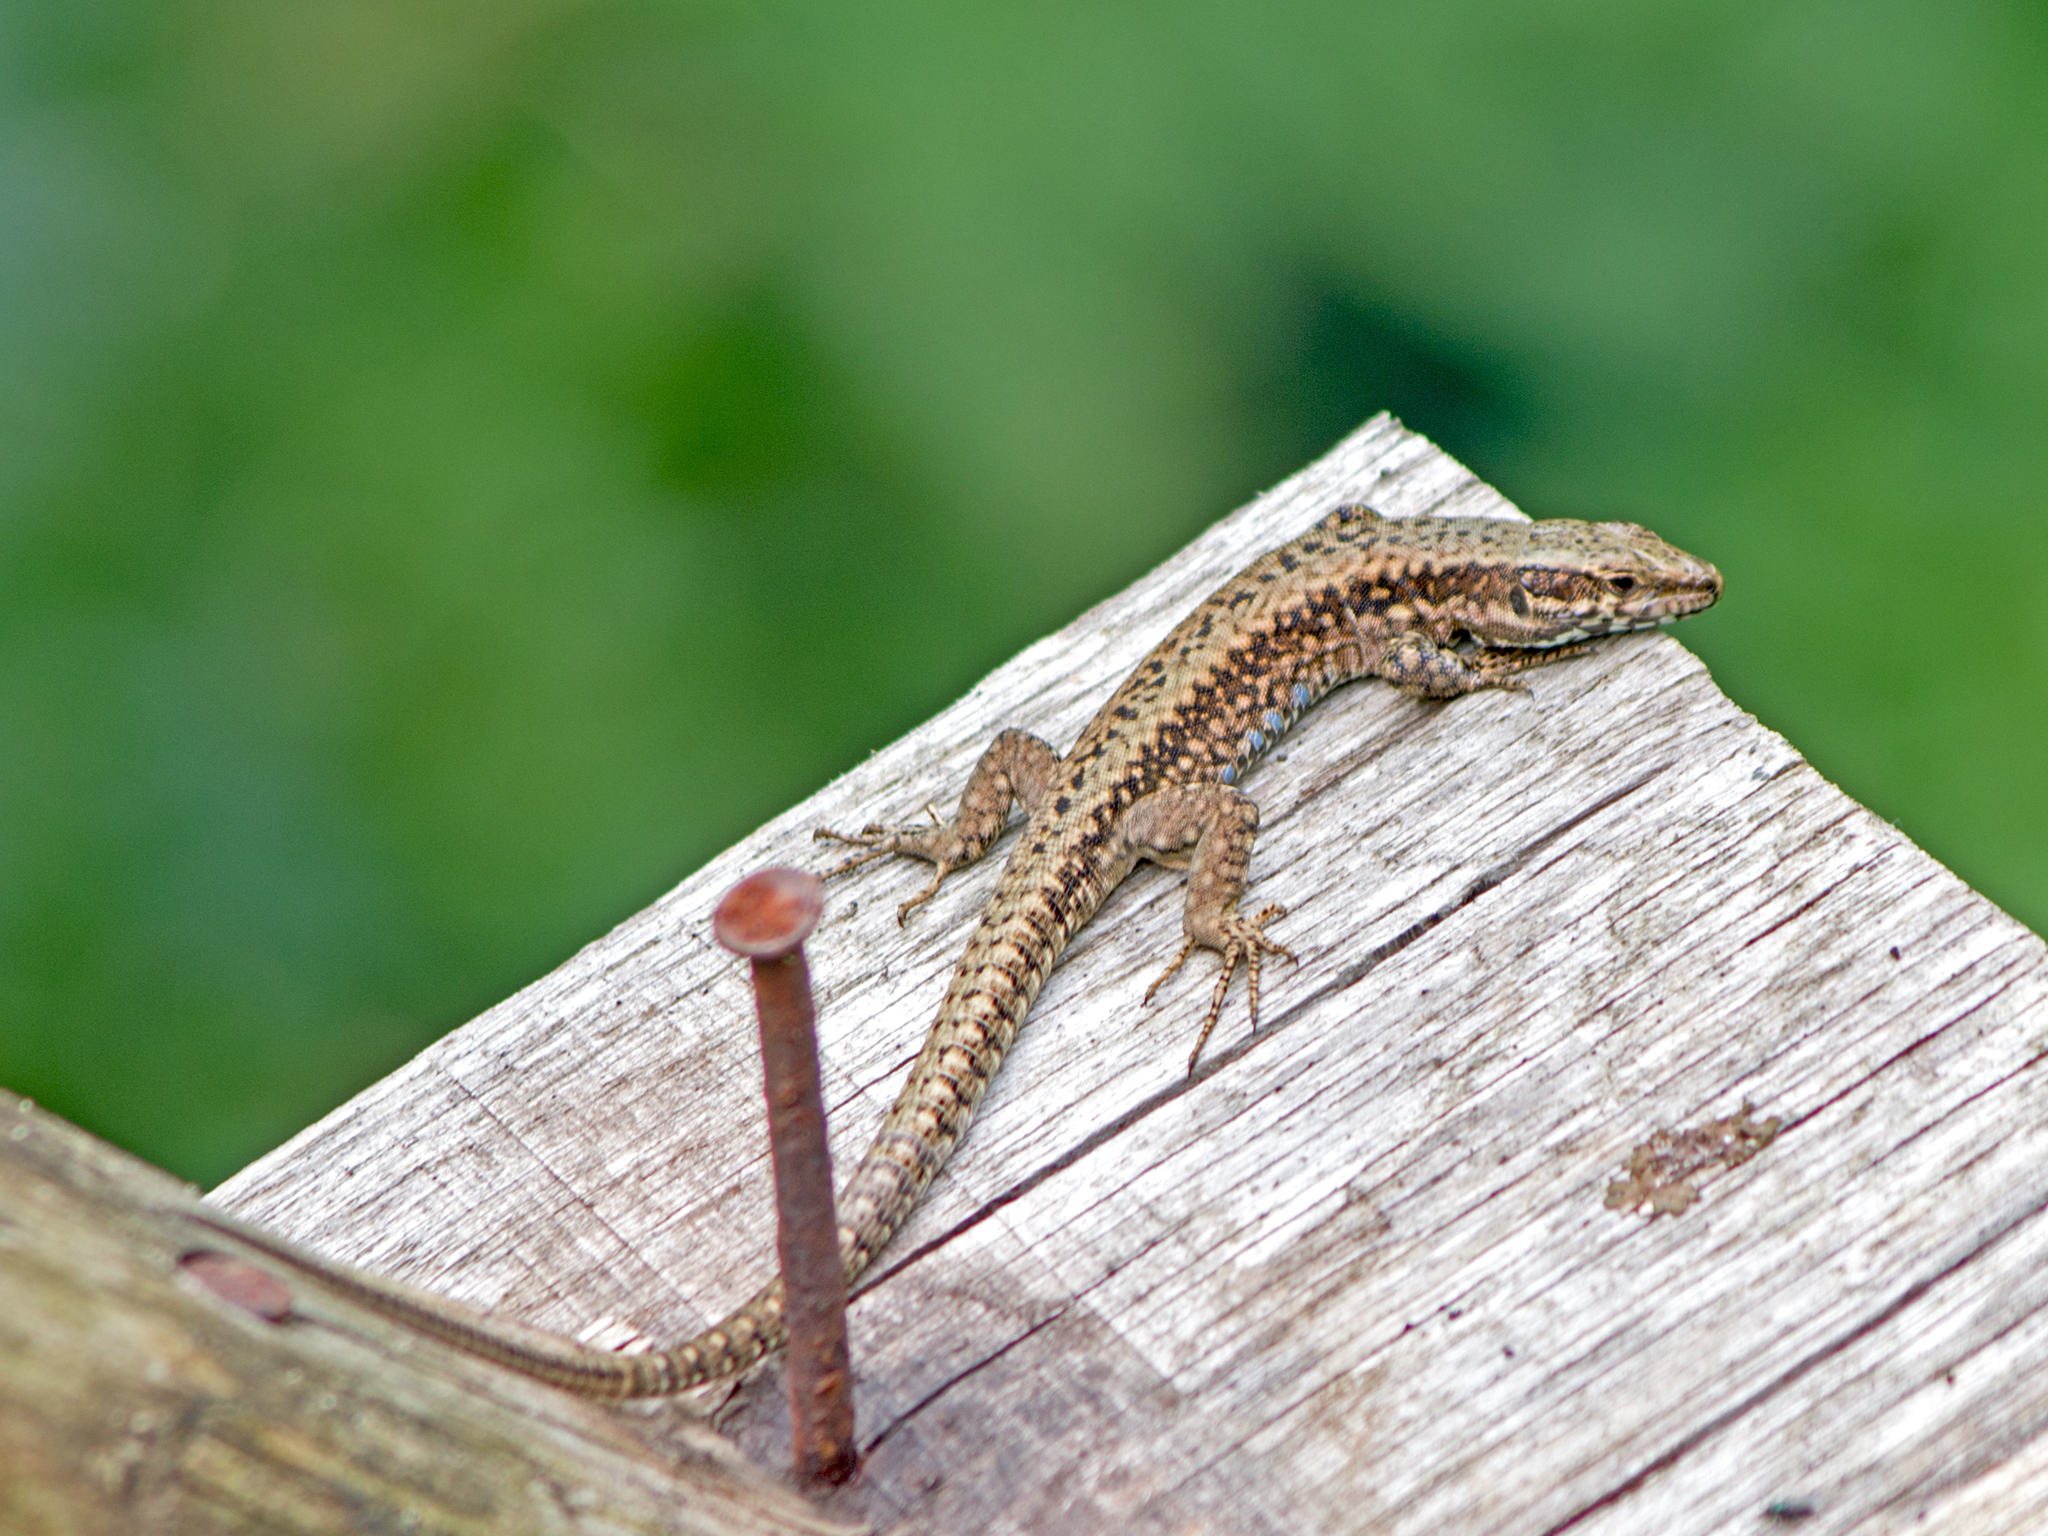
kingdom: Animalia
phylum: Chordata
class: Squamata
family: Lacertidae
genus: Podarcis
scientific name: Podarcis muralis
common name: Common wall lizard
